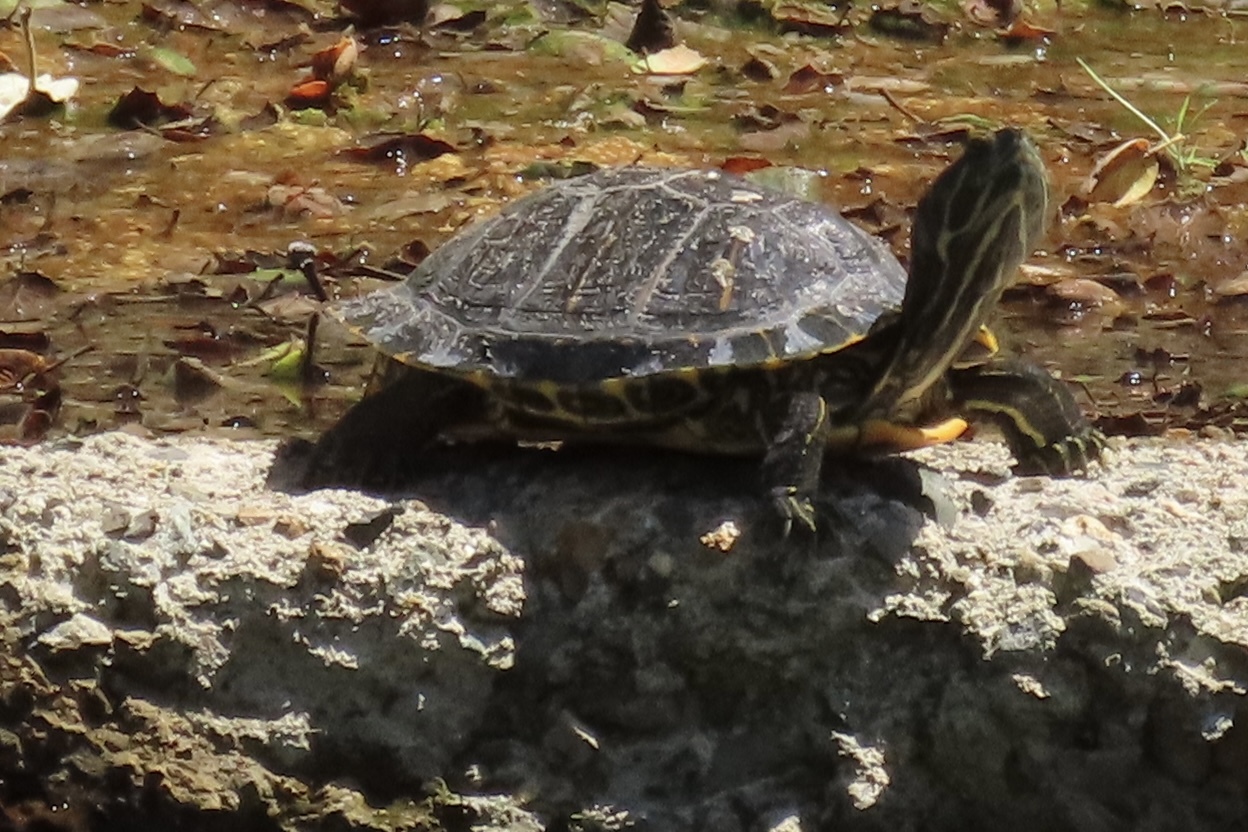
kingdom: Animalia
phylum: Chordata
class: Testudines
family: Emydidae
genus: Trachemys
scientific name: Trachemys scripta
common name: Slider
